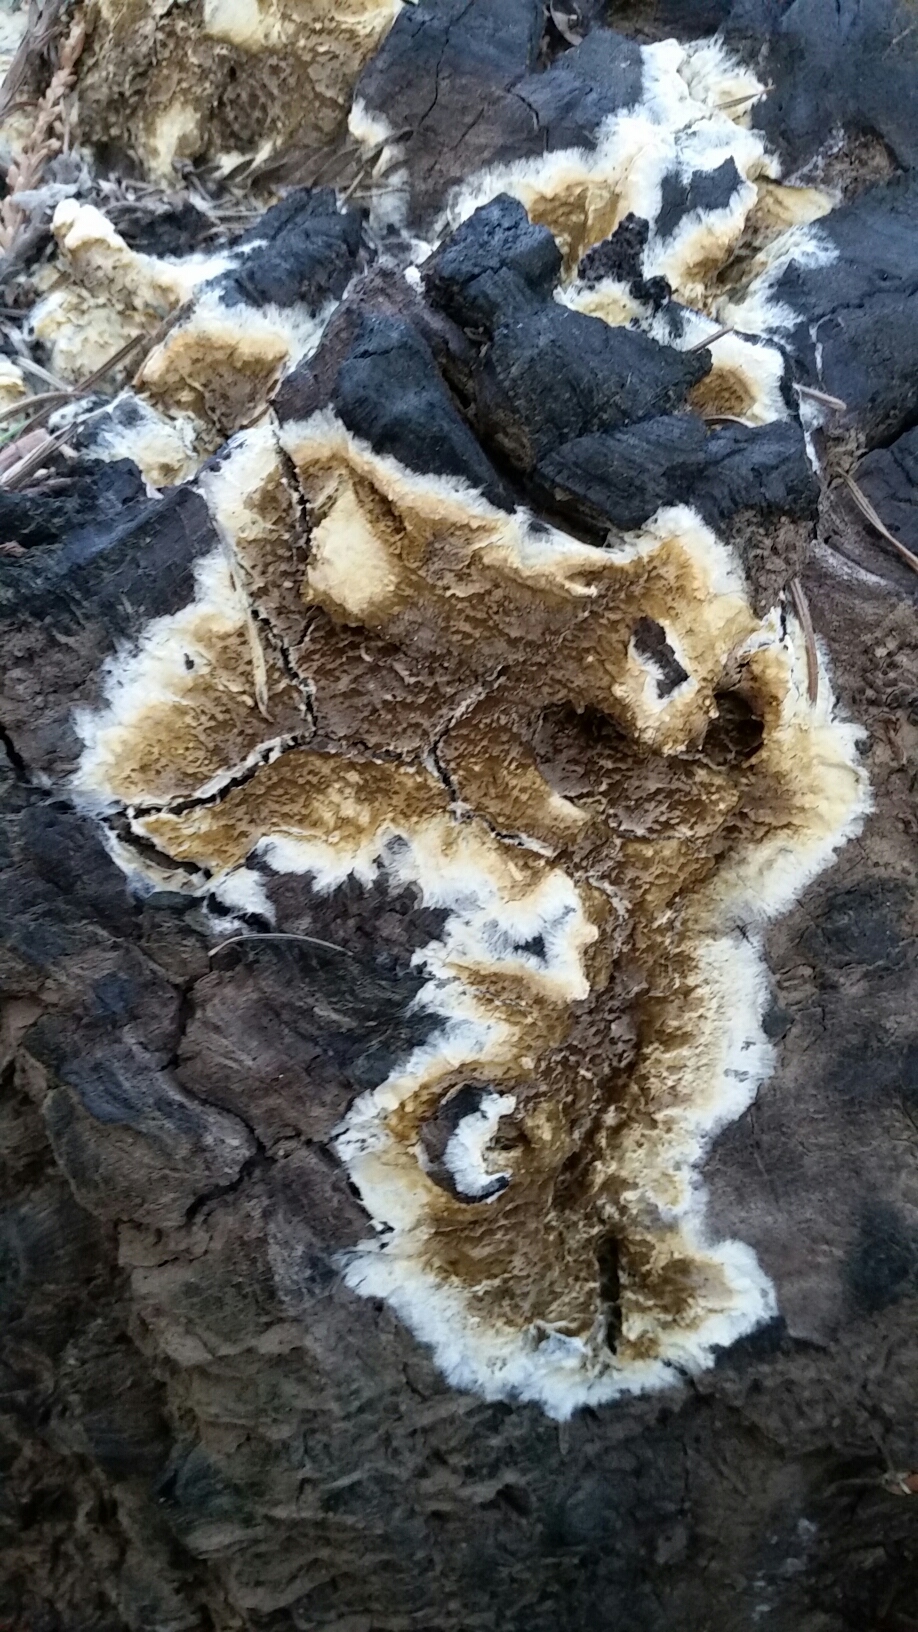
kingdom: Fungi
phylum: Basidiomycota
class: Agaricomycetes
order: Boletales
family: Coniophoraceae
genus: Coniophora
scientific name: Coniophora puteana
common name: Cellar fungus
